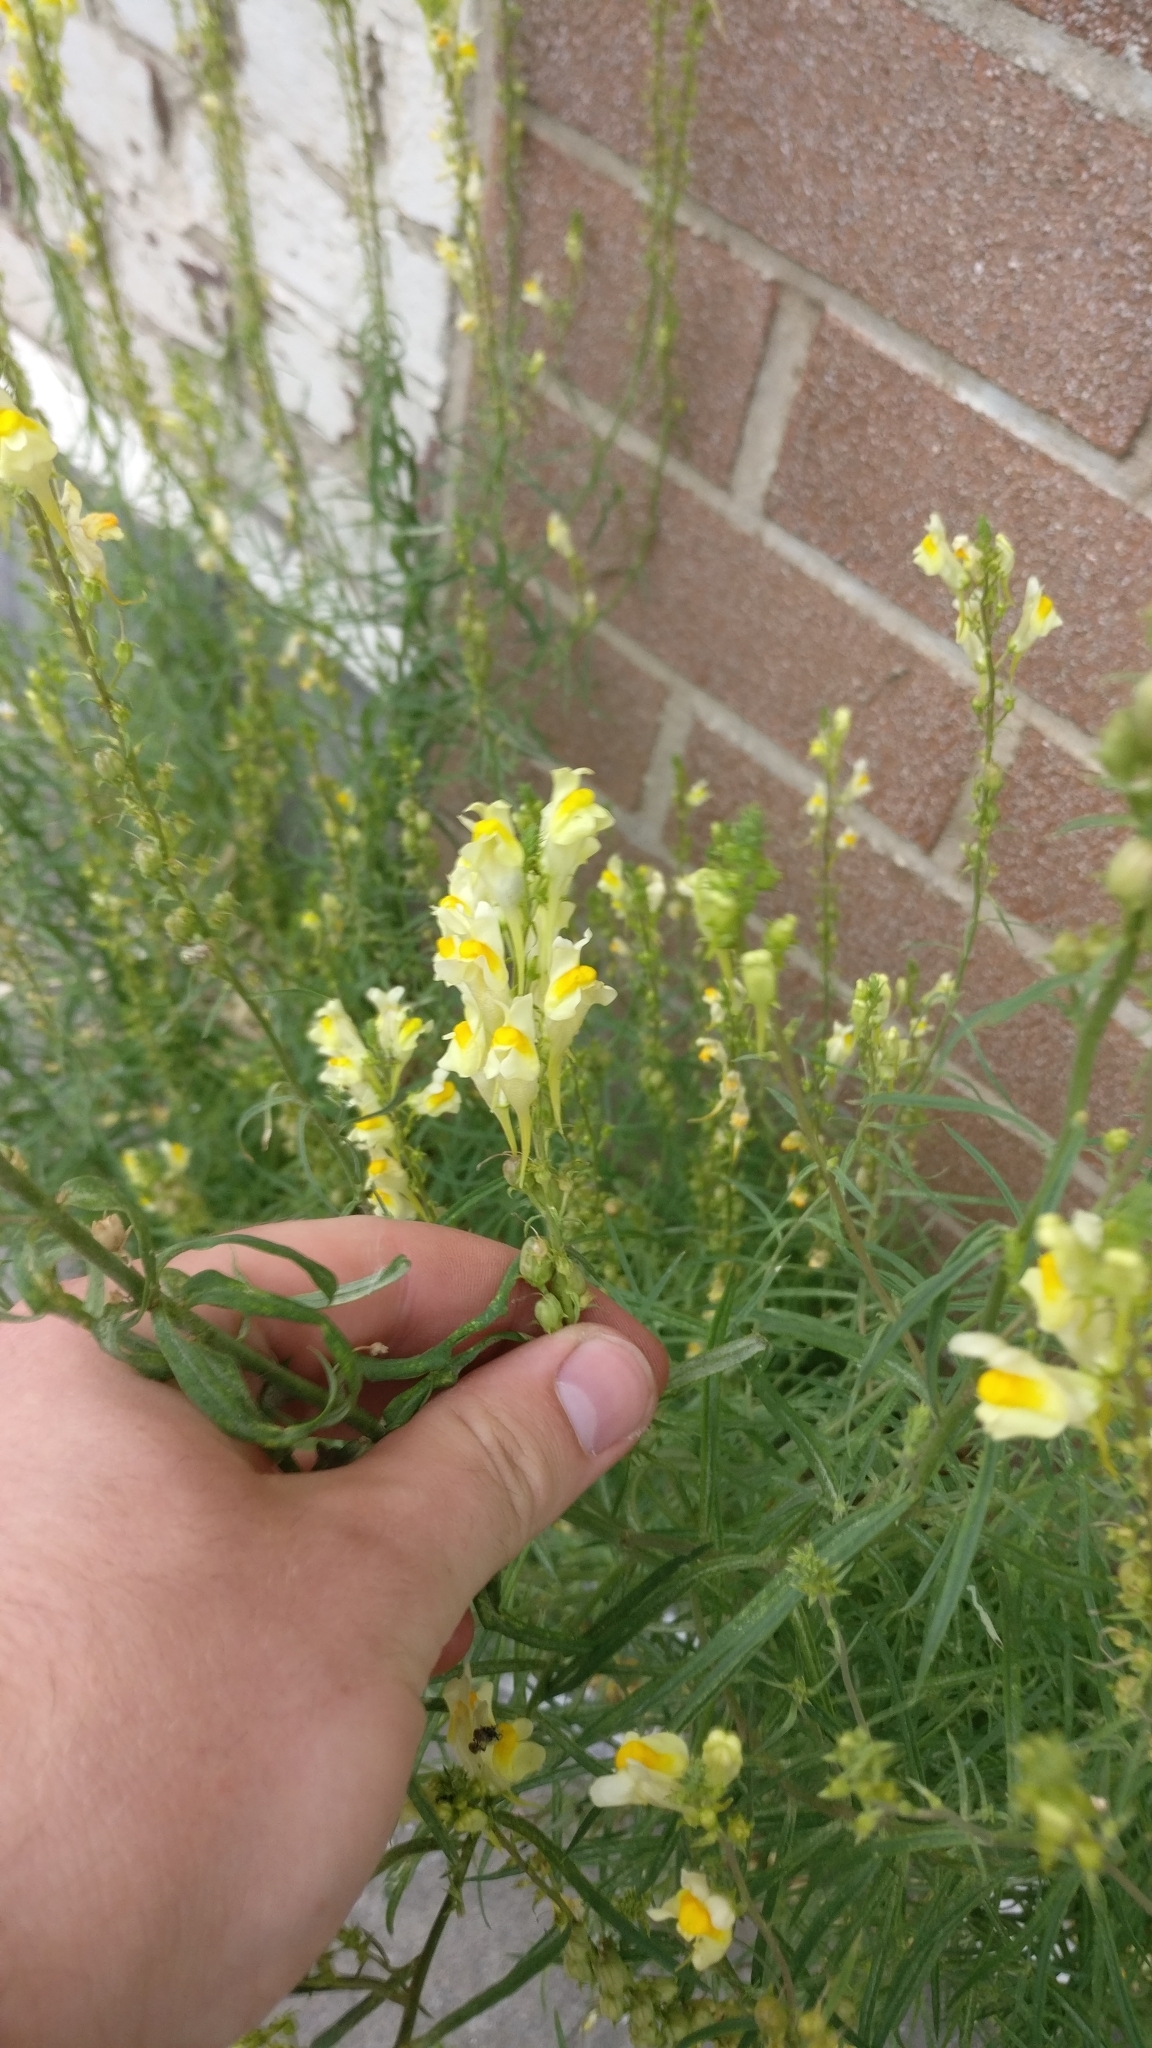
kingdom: Plantae
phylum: Tracheophyta
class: Magnoliopsida
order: Lamiales
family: Plantaginaceae
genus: Linaria
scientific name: Linaria vulgaris
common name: Butter and eggs
